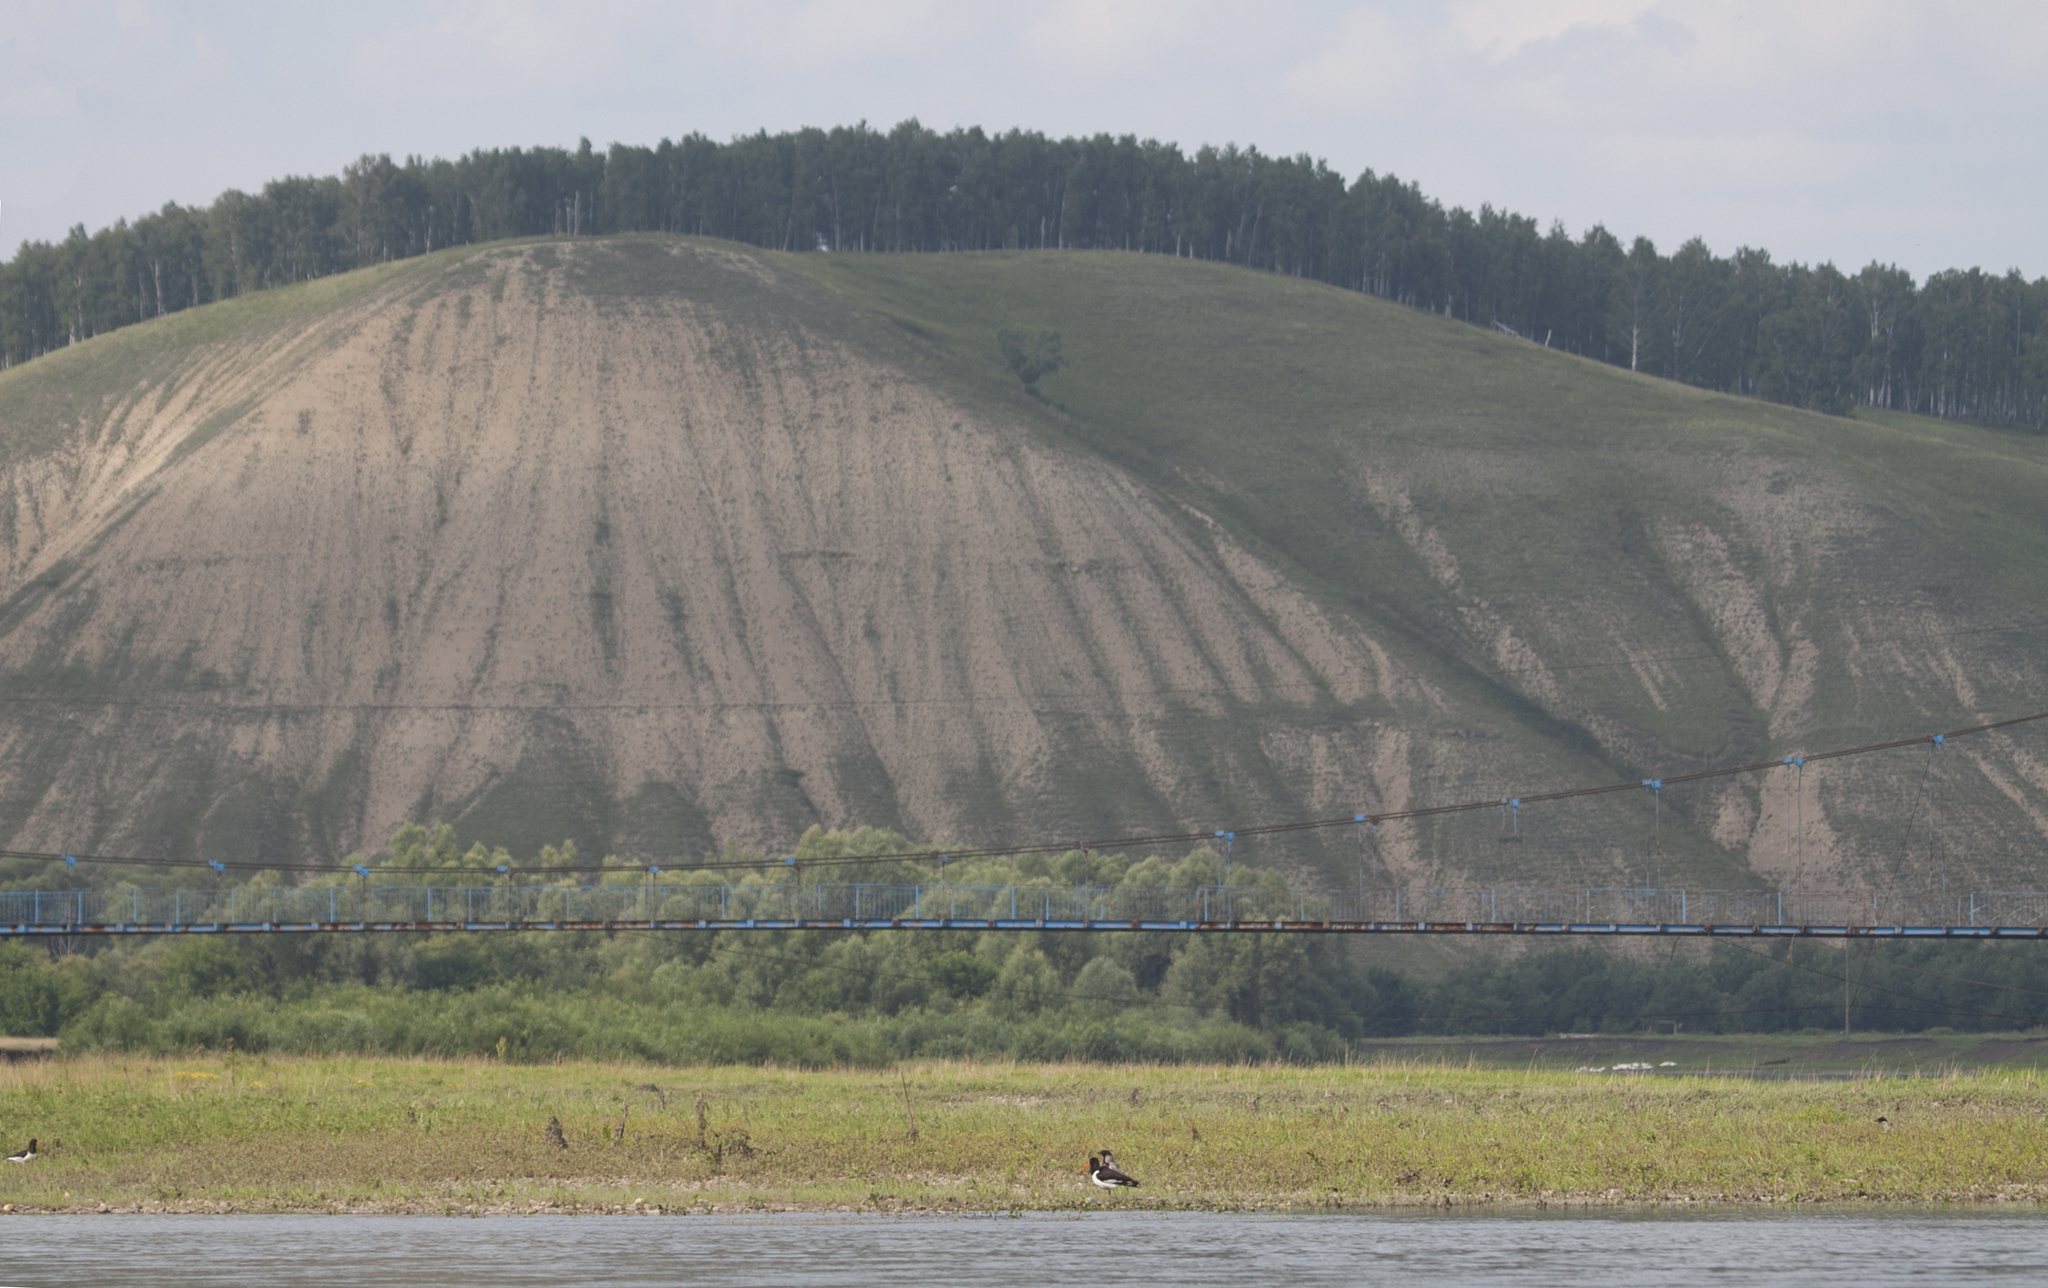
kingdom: Animalia
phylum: Chordata
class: Aves
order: Charadriiformes
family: Haematopodidae
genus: Haematopus
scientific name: Haematopus ostralegus
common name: Eurasian oystercatcher
